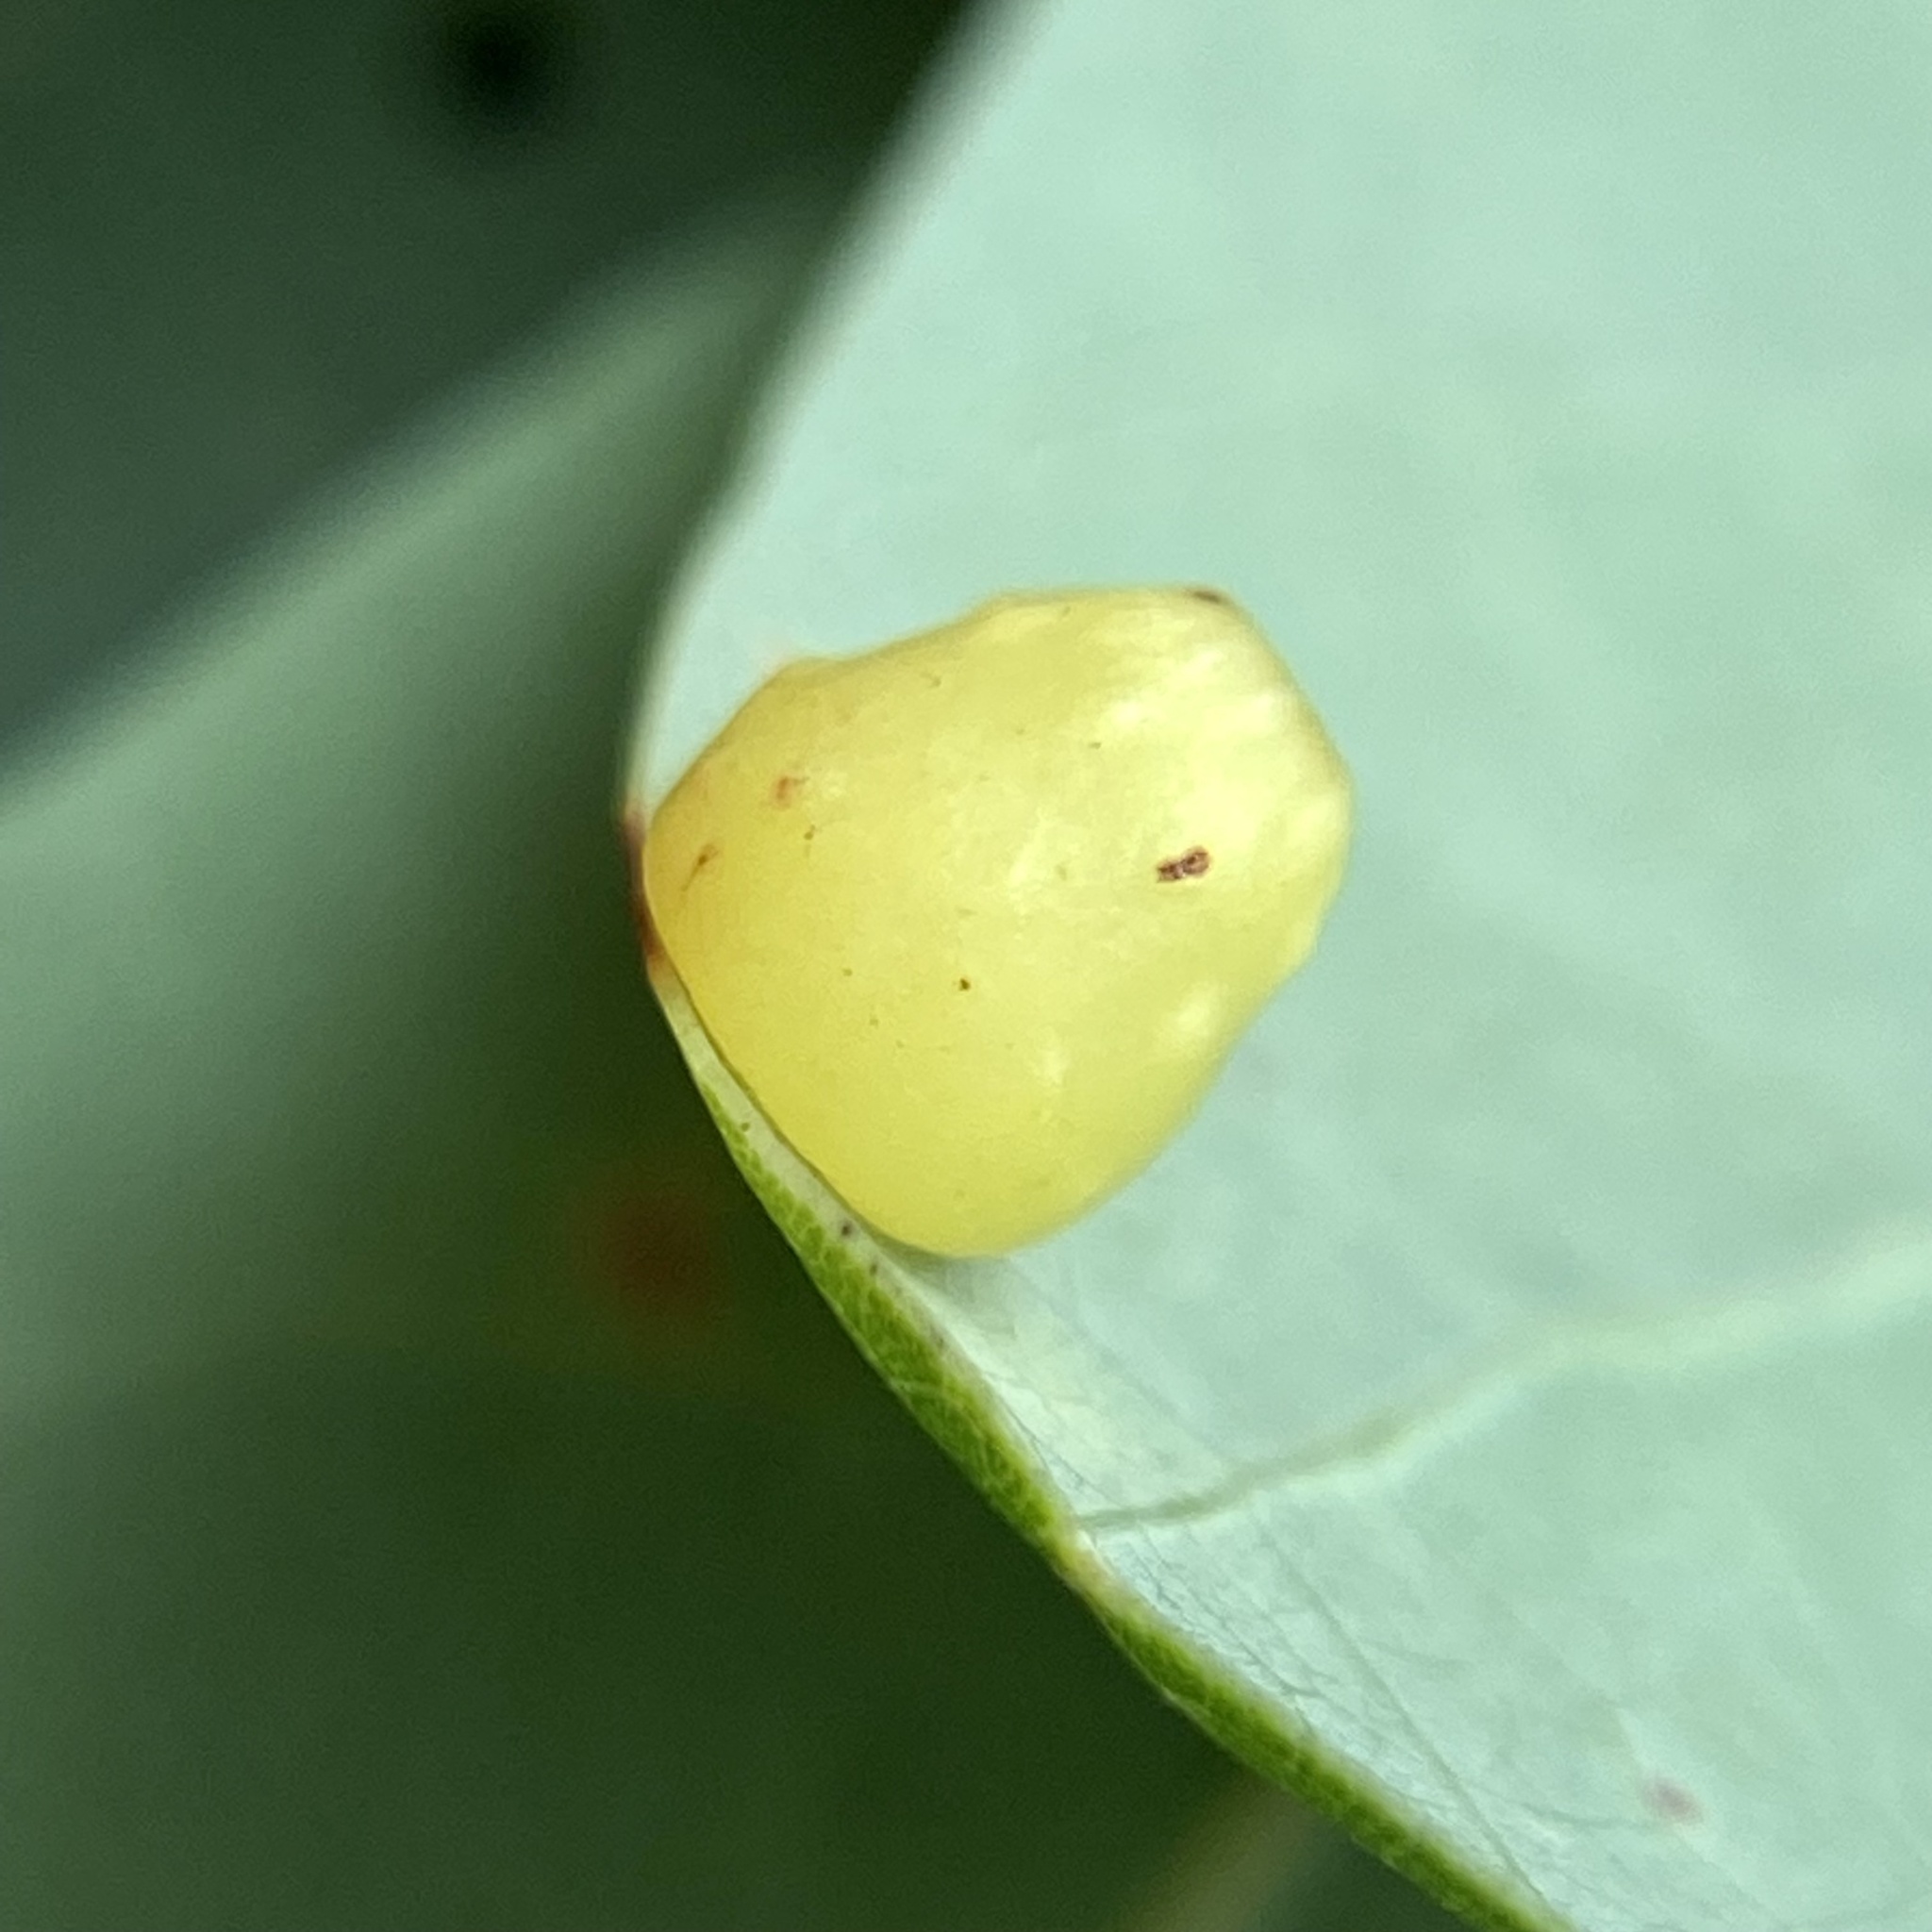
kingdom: Animalia
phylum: Arthropoda
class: Insecta
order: Hymenoptera
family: Cynipidae
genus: Andricus
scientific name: Andricus
